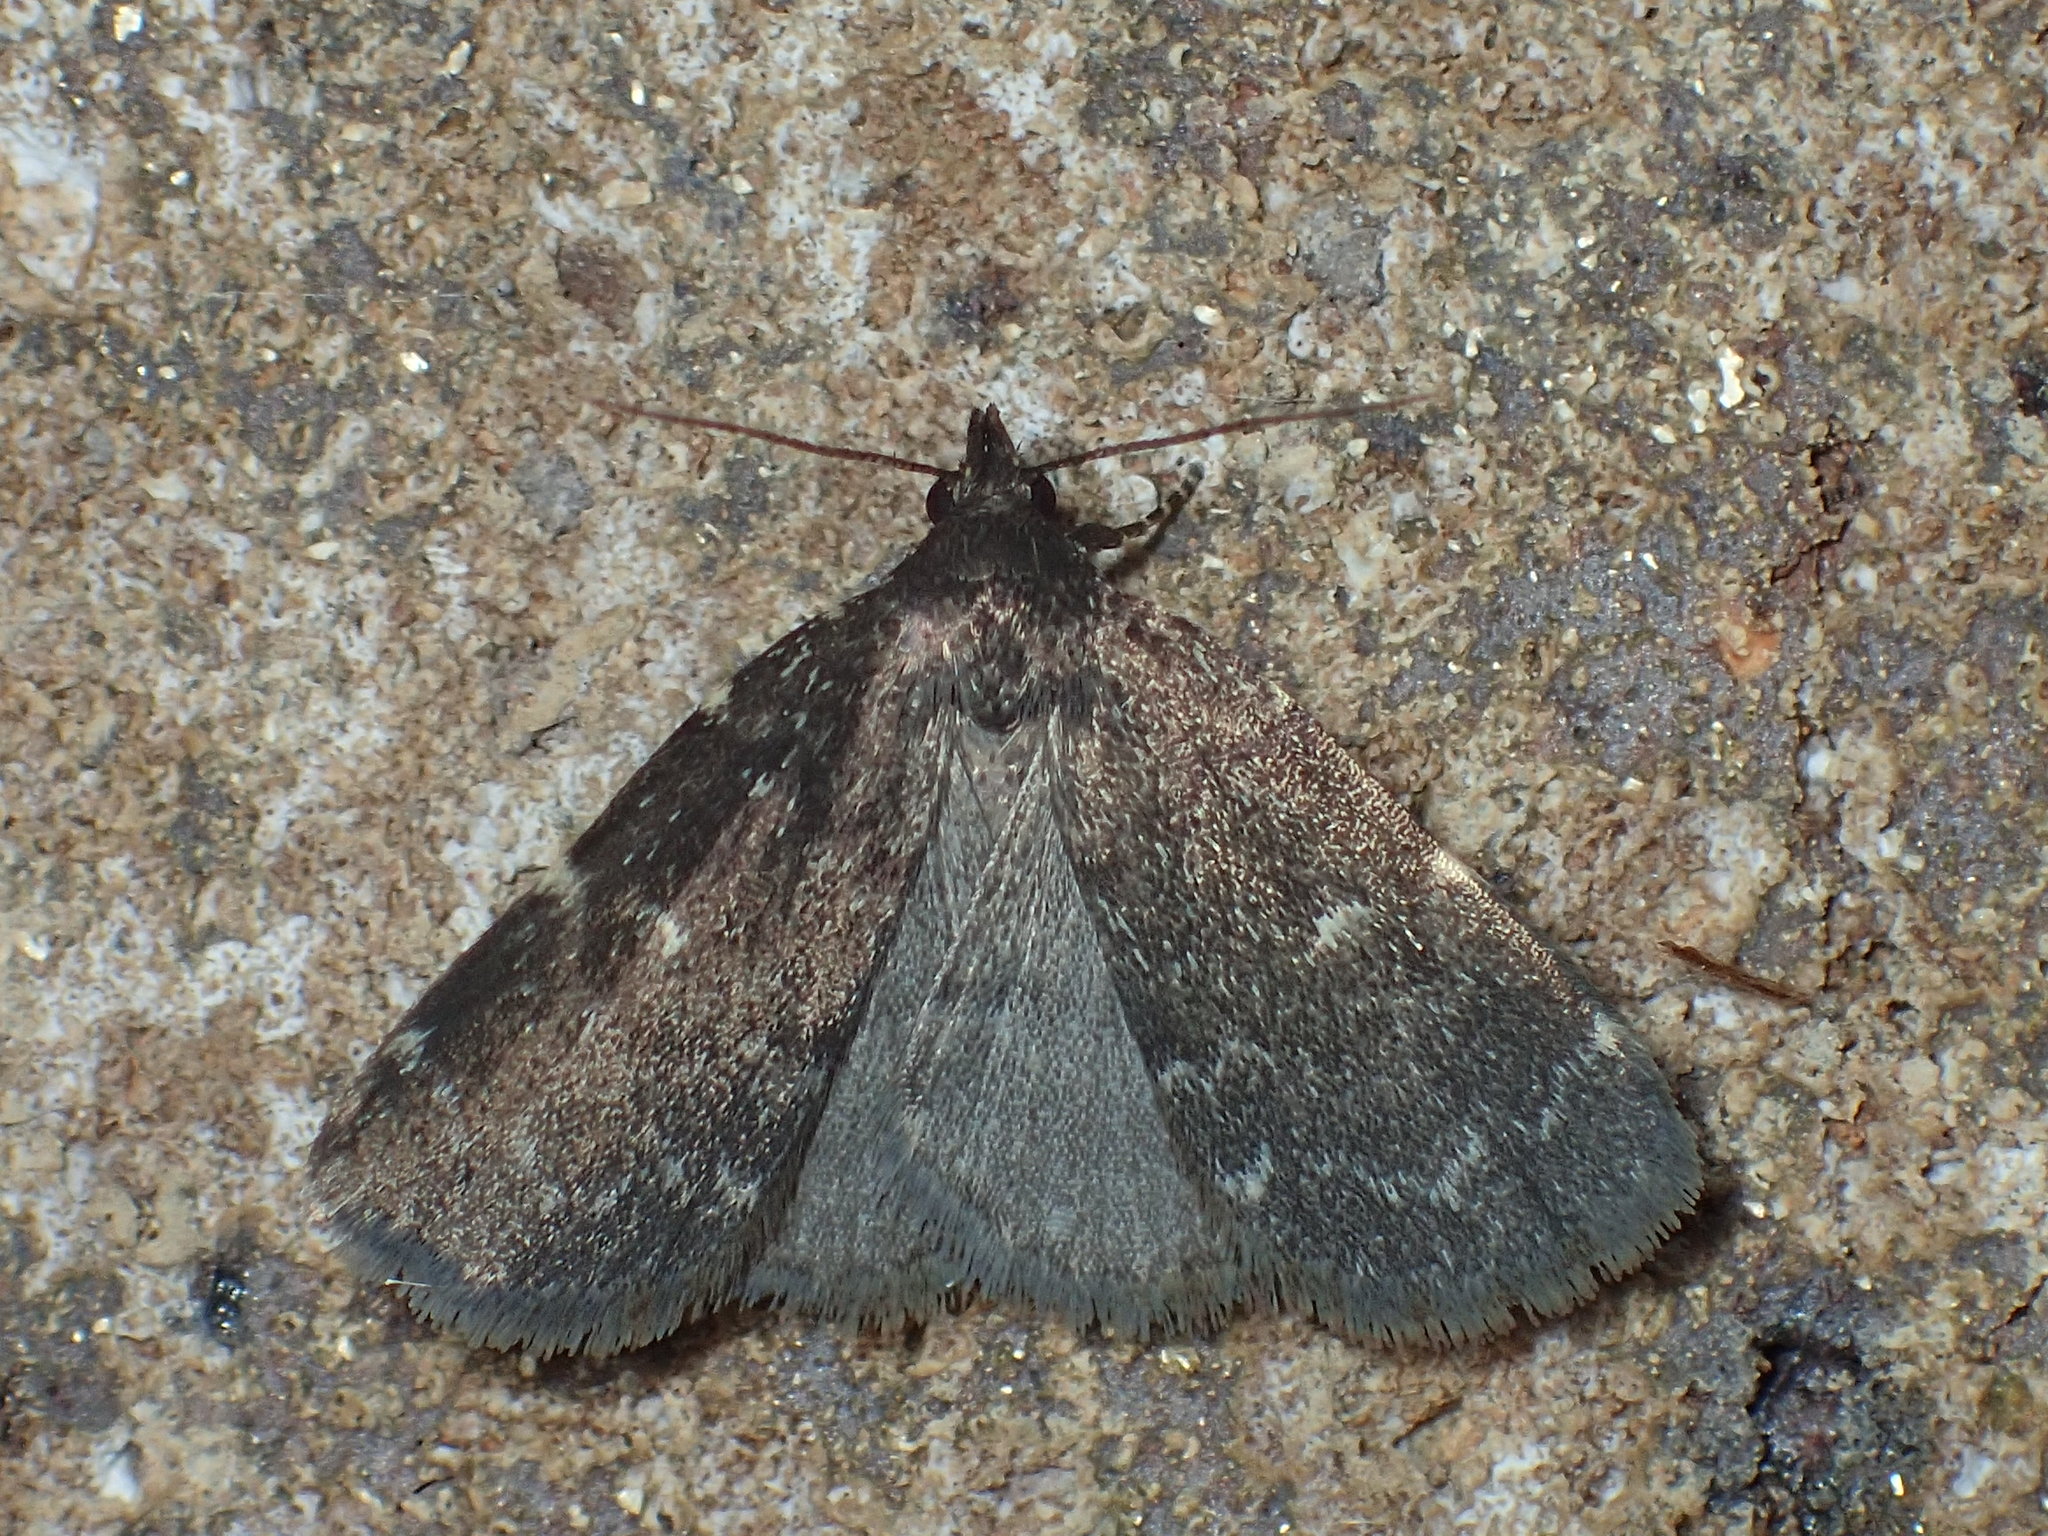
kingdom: Animalia
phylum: Arthropoda
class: Insecta
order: Lepidoptera
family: Erebidae
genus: Idia
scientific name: Idia julia
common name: Julia's idia moth
